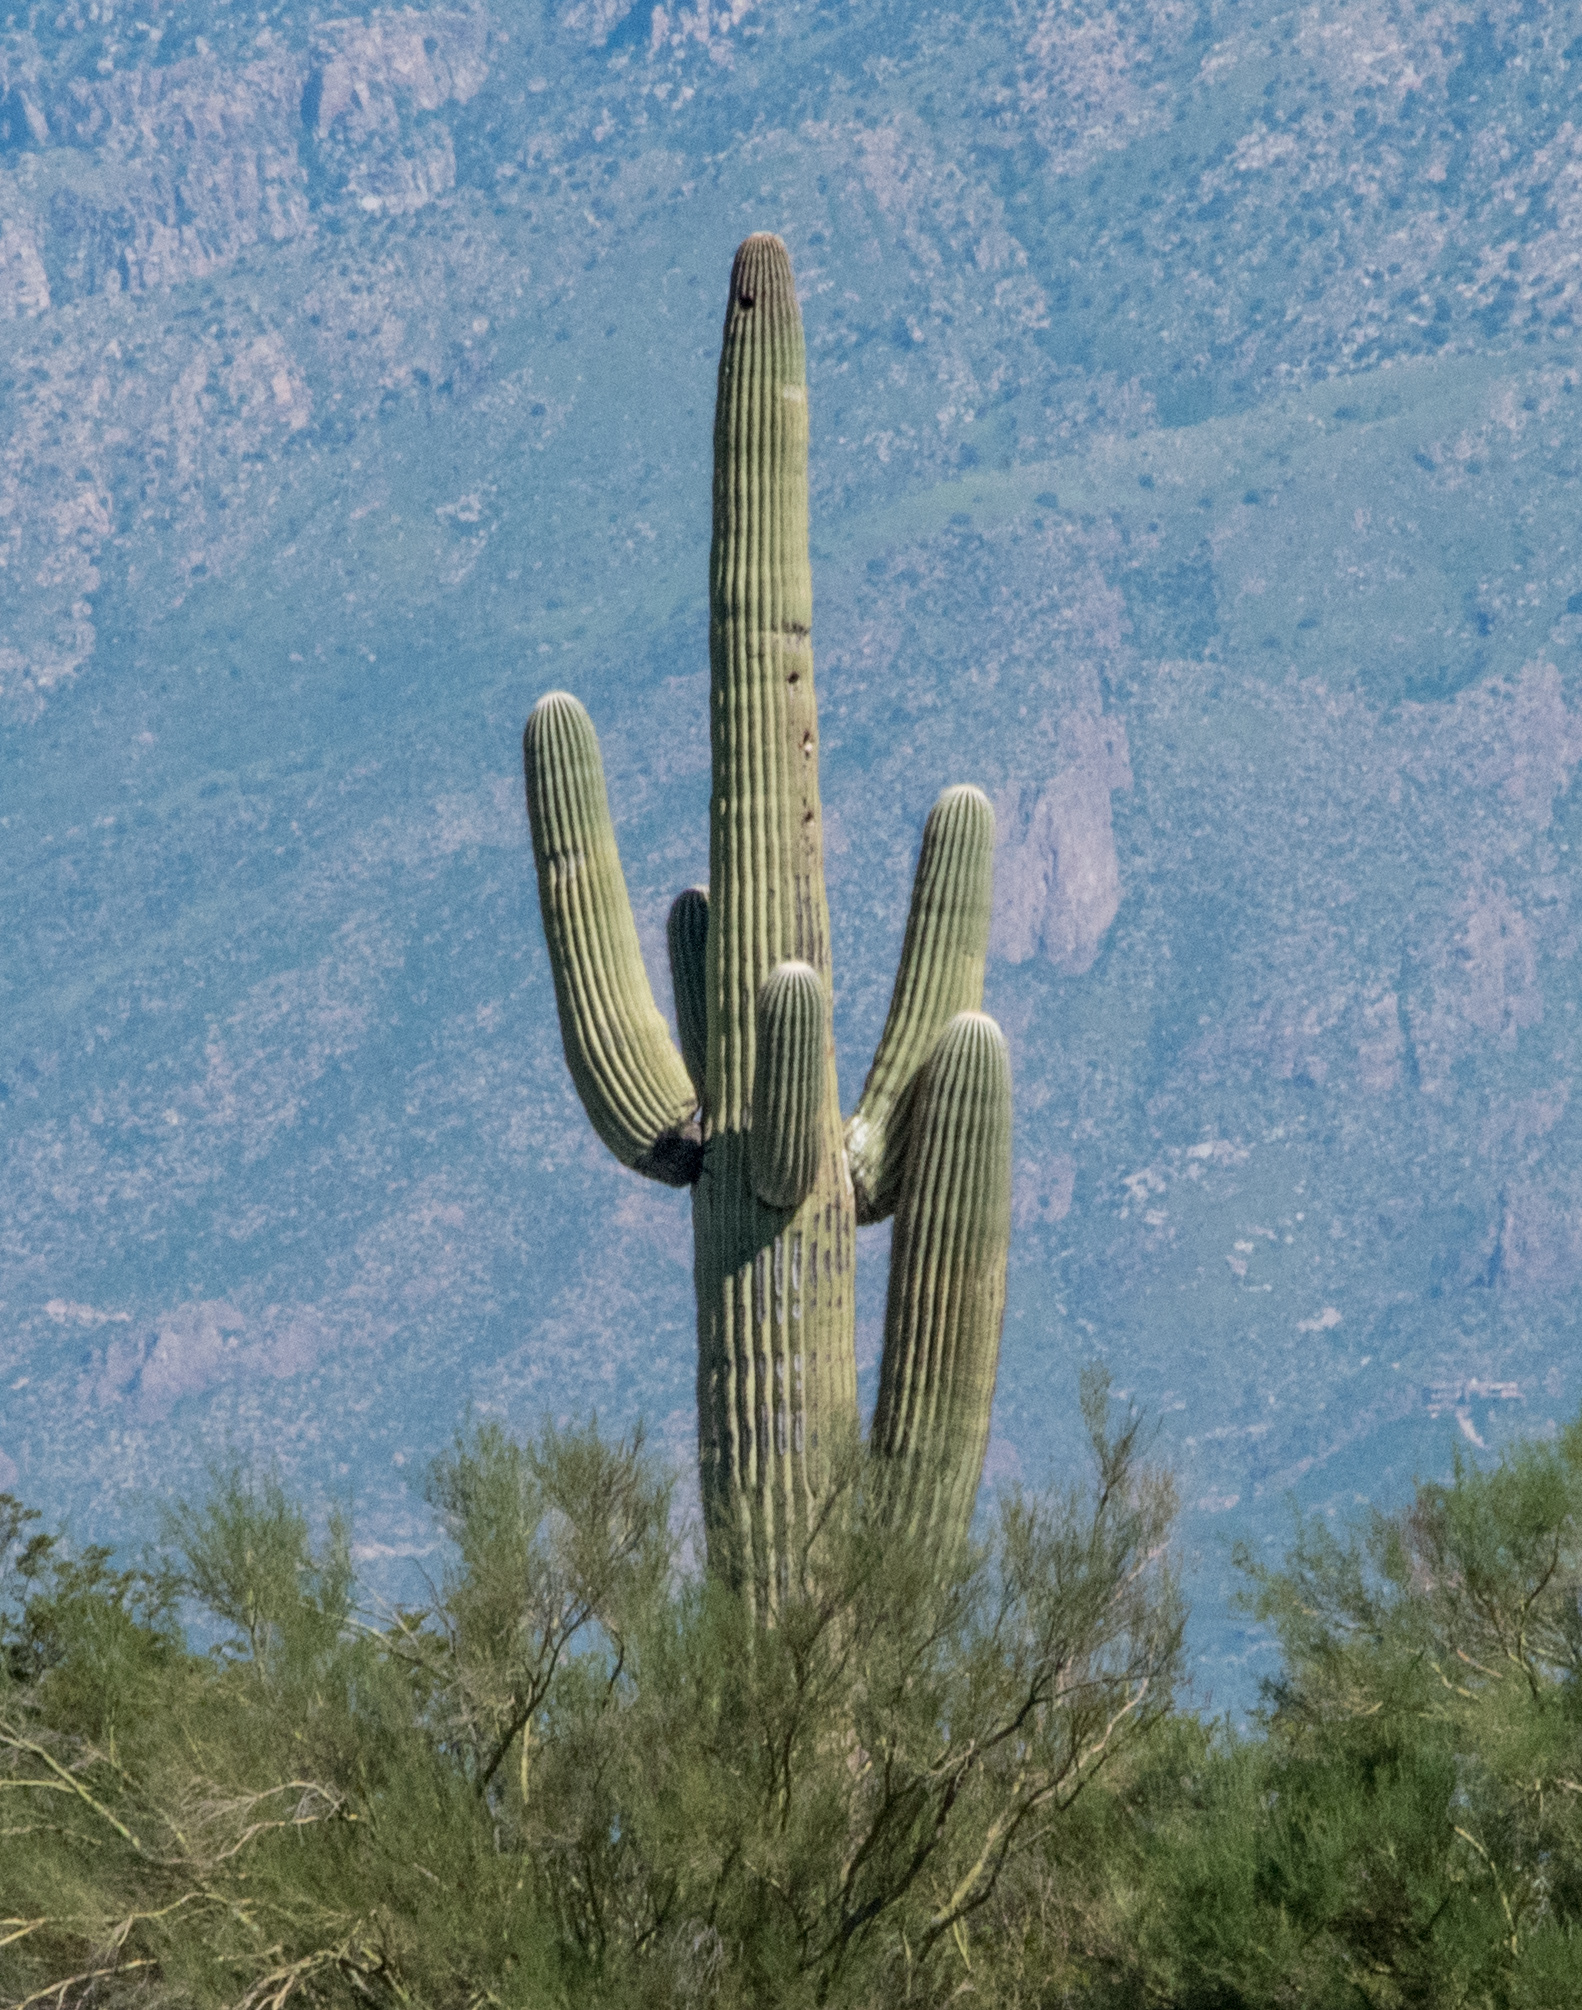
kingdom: Plantae
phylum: Tracheophyta
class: Magnoliopsida
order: Caryophyllales
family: Cactaceae
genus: Carnegiea
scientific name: Carnegiea gigantea
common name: Saguaro
